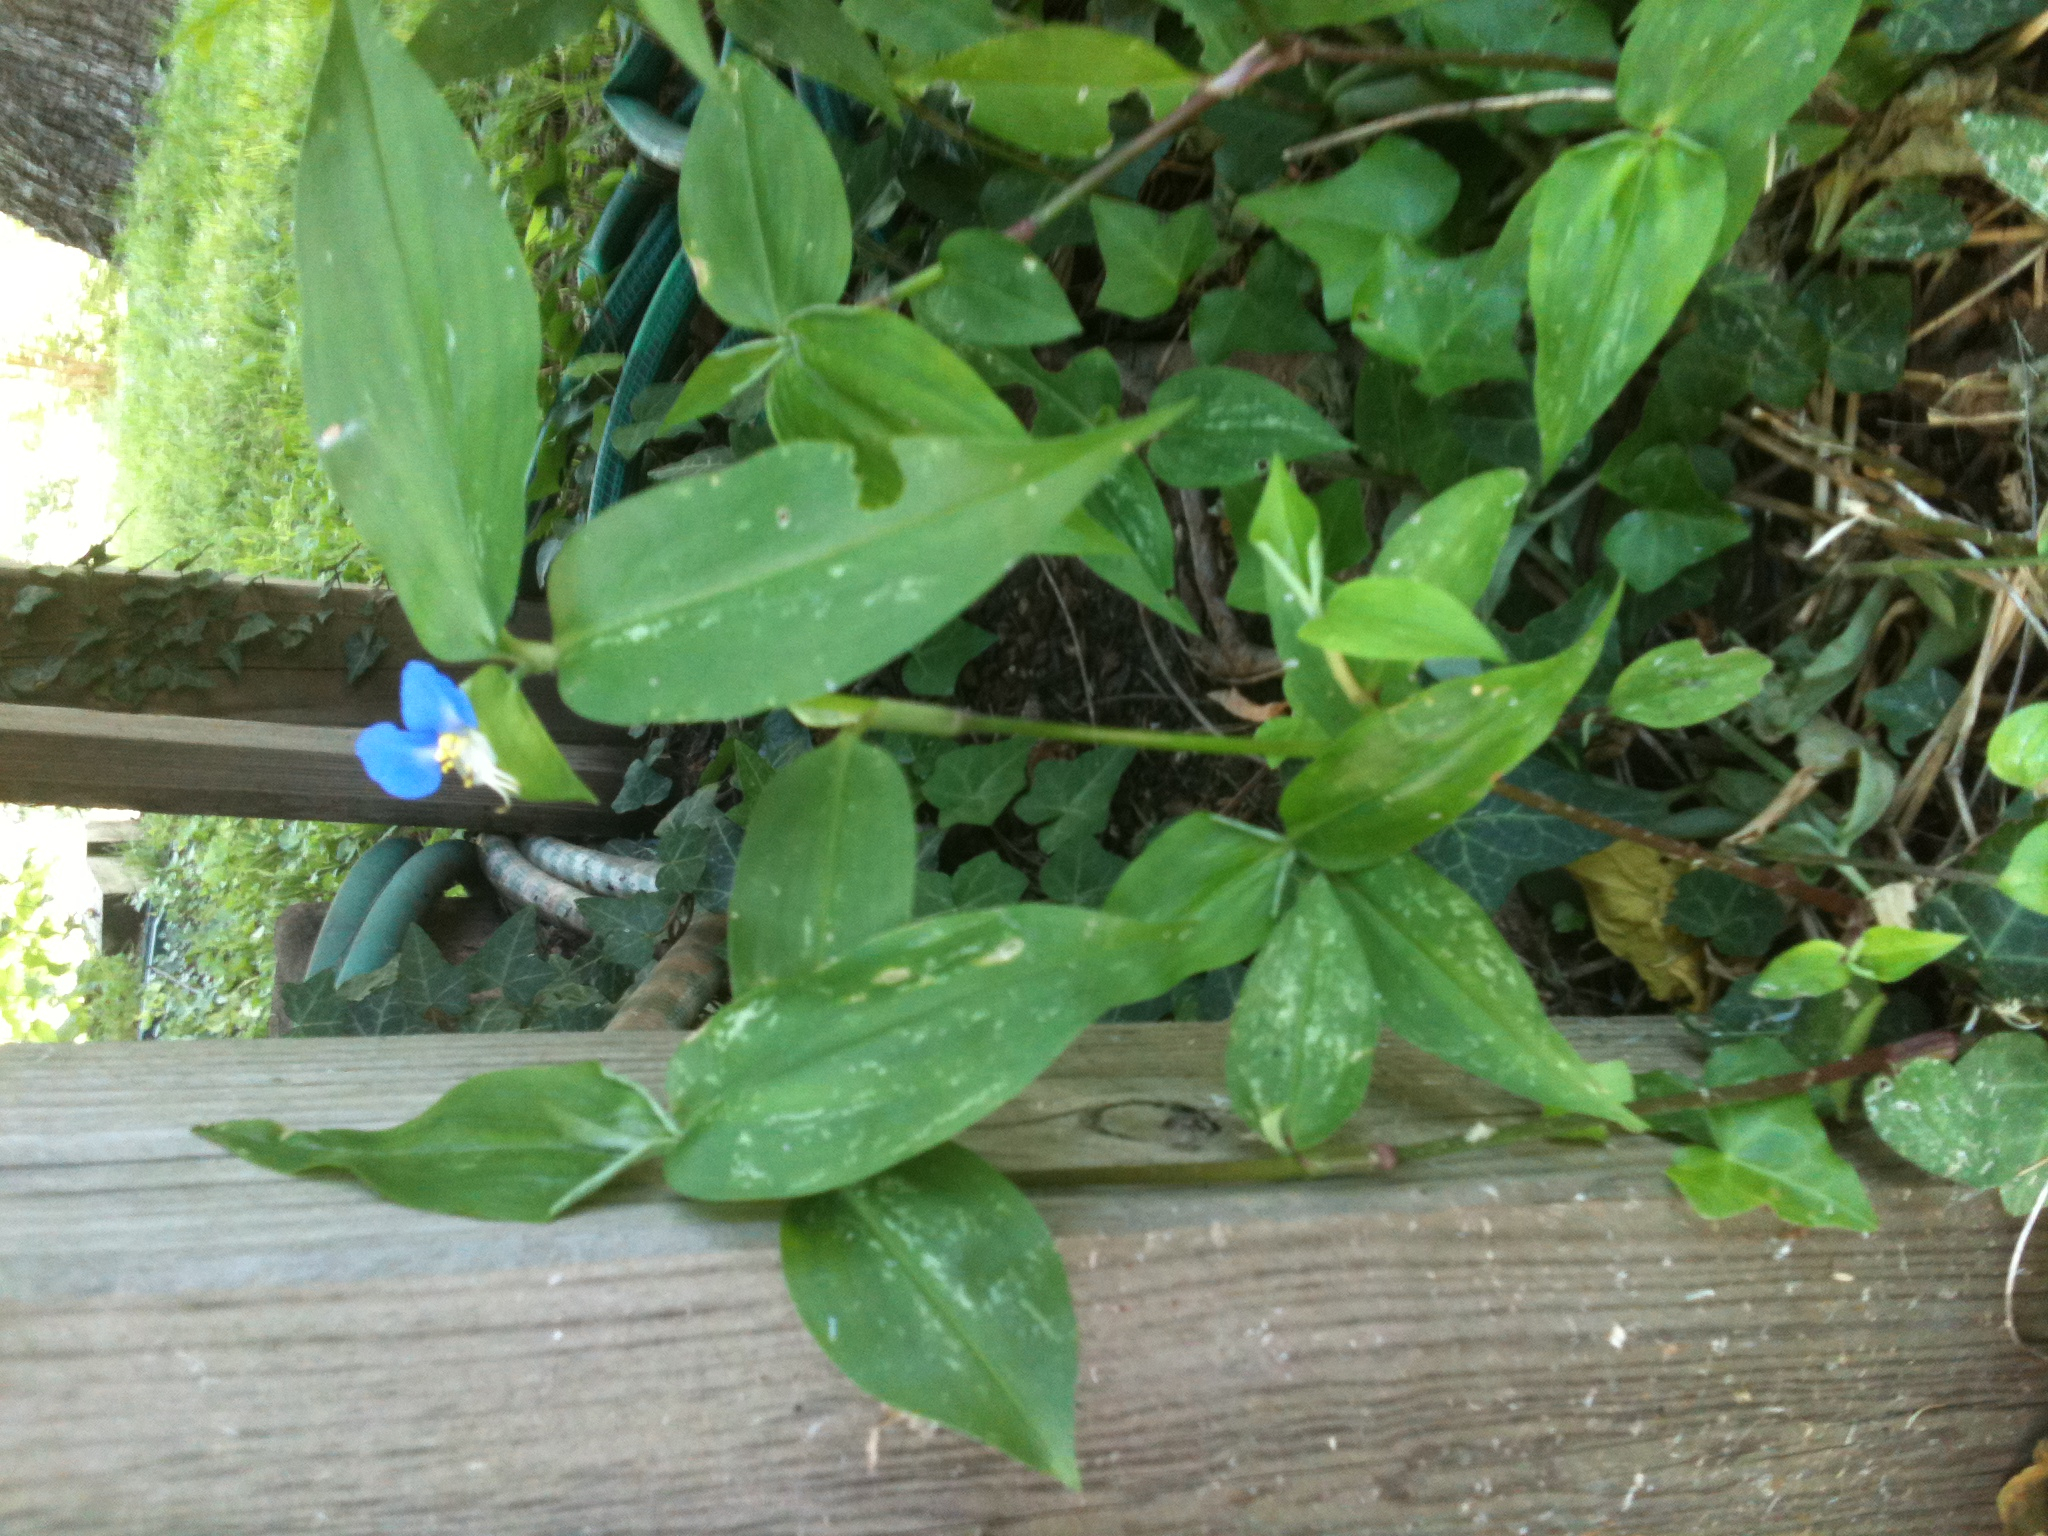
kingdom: Plantae
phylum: Tracheophyta
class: Liliopsida
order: Commelinales
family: Commelinaceae
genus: Commelina
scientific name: Commelina communis
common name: Asiatic dayflower
